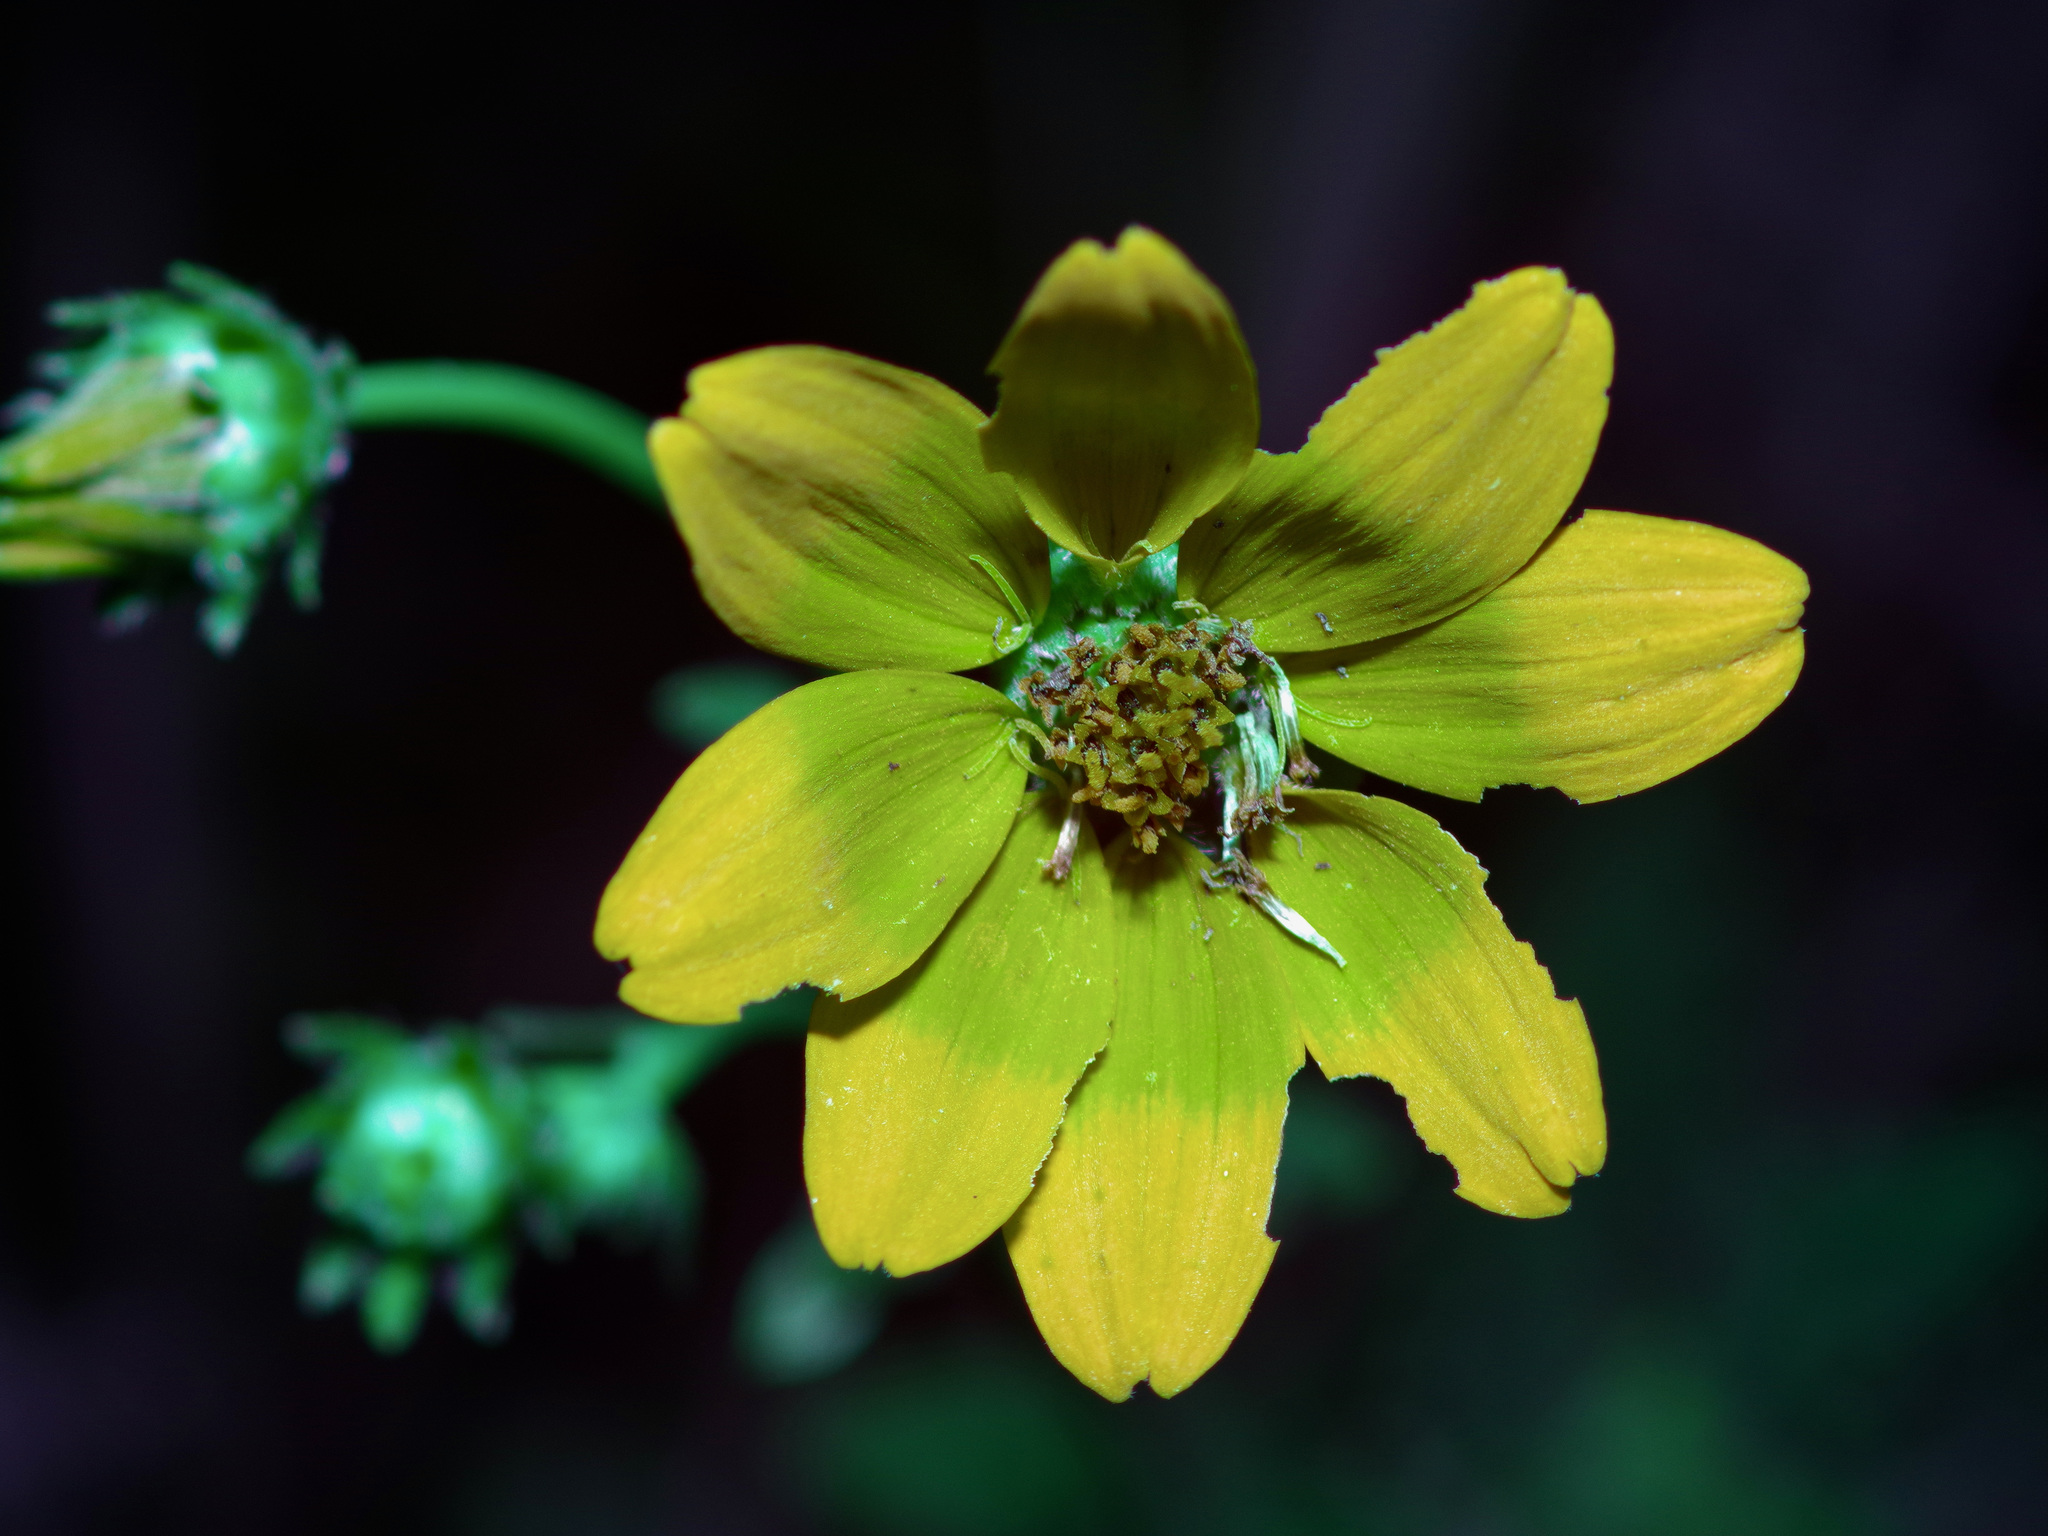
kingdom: Plantae
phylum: Tracheophyta
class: Magnoliopsida
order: Asterales
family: Asteraceae
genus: Engelmannia
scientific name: Engelmannia peristenia
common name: Engelmann's daisy
